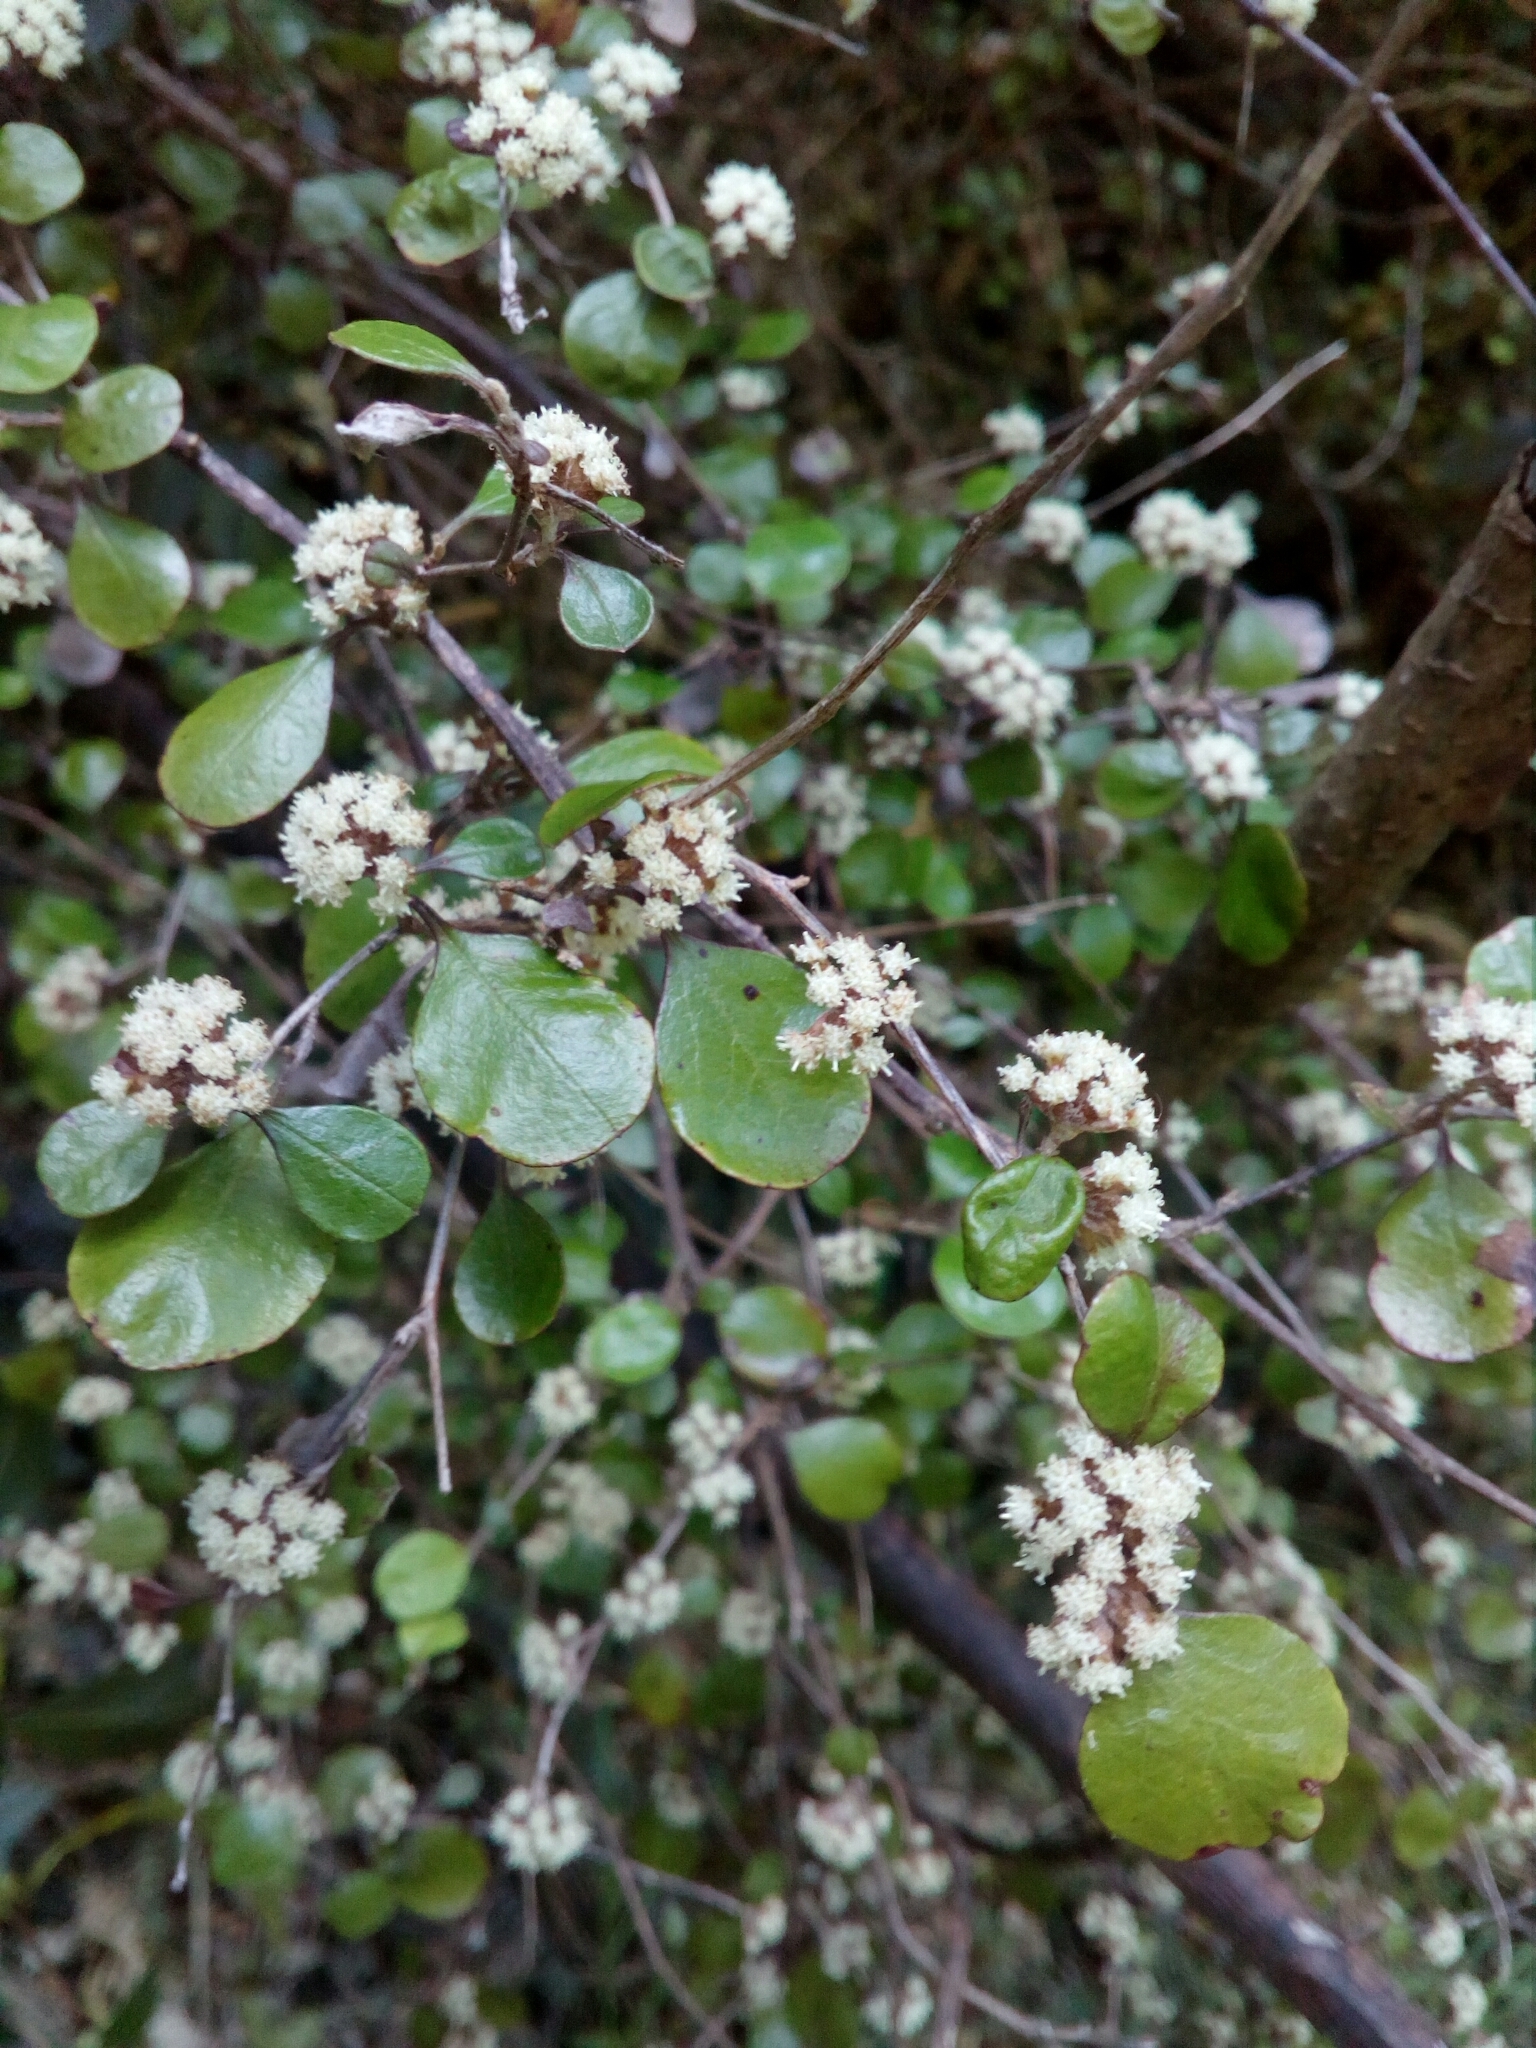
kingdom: Plantae
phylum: Tracheophyta
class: Magnoliopsida
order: Asterales
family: Asteraceae
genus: Ozothamnus
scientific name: Ozothamnus glomeratus
